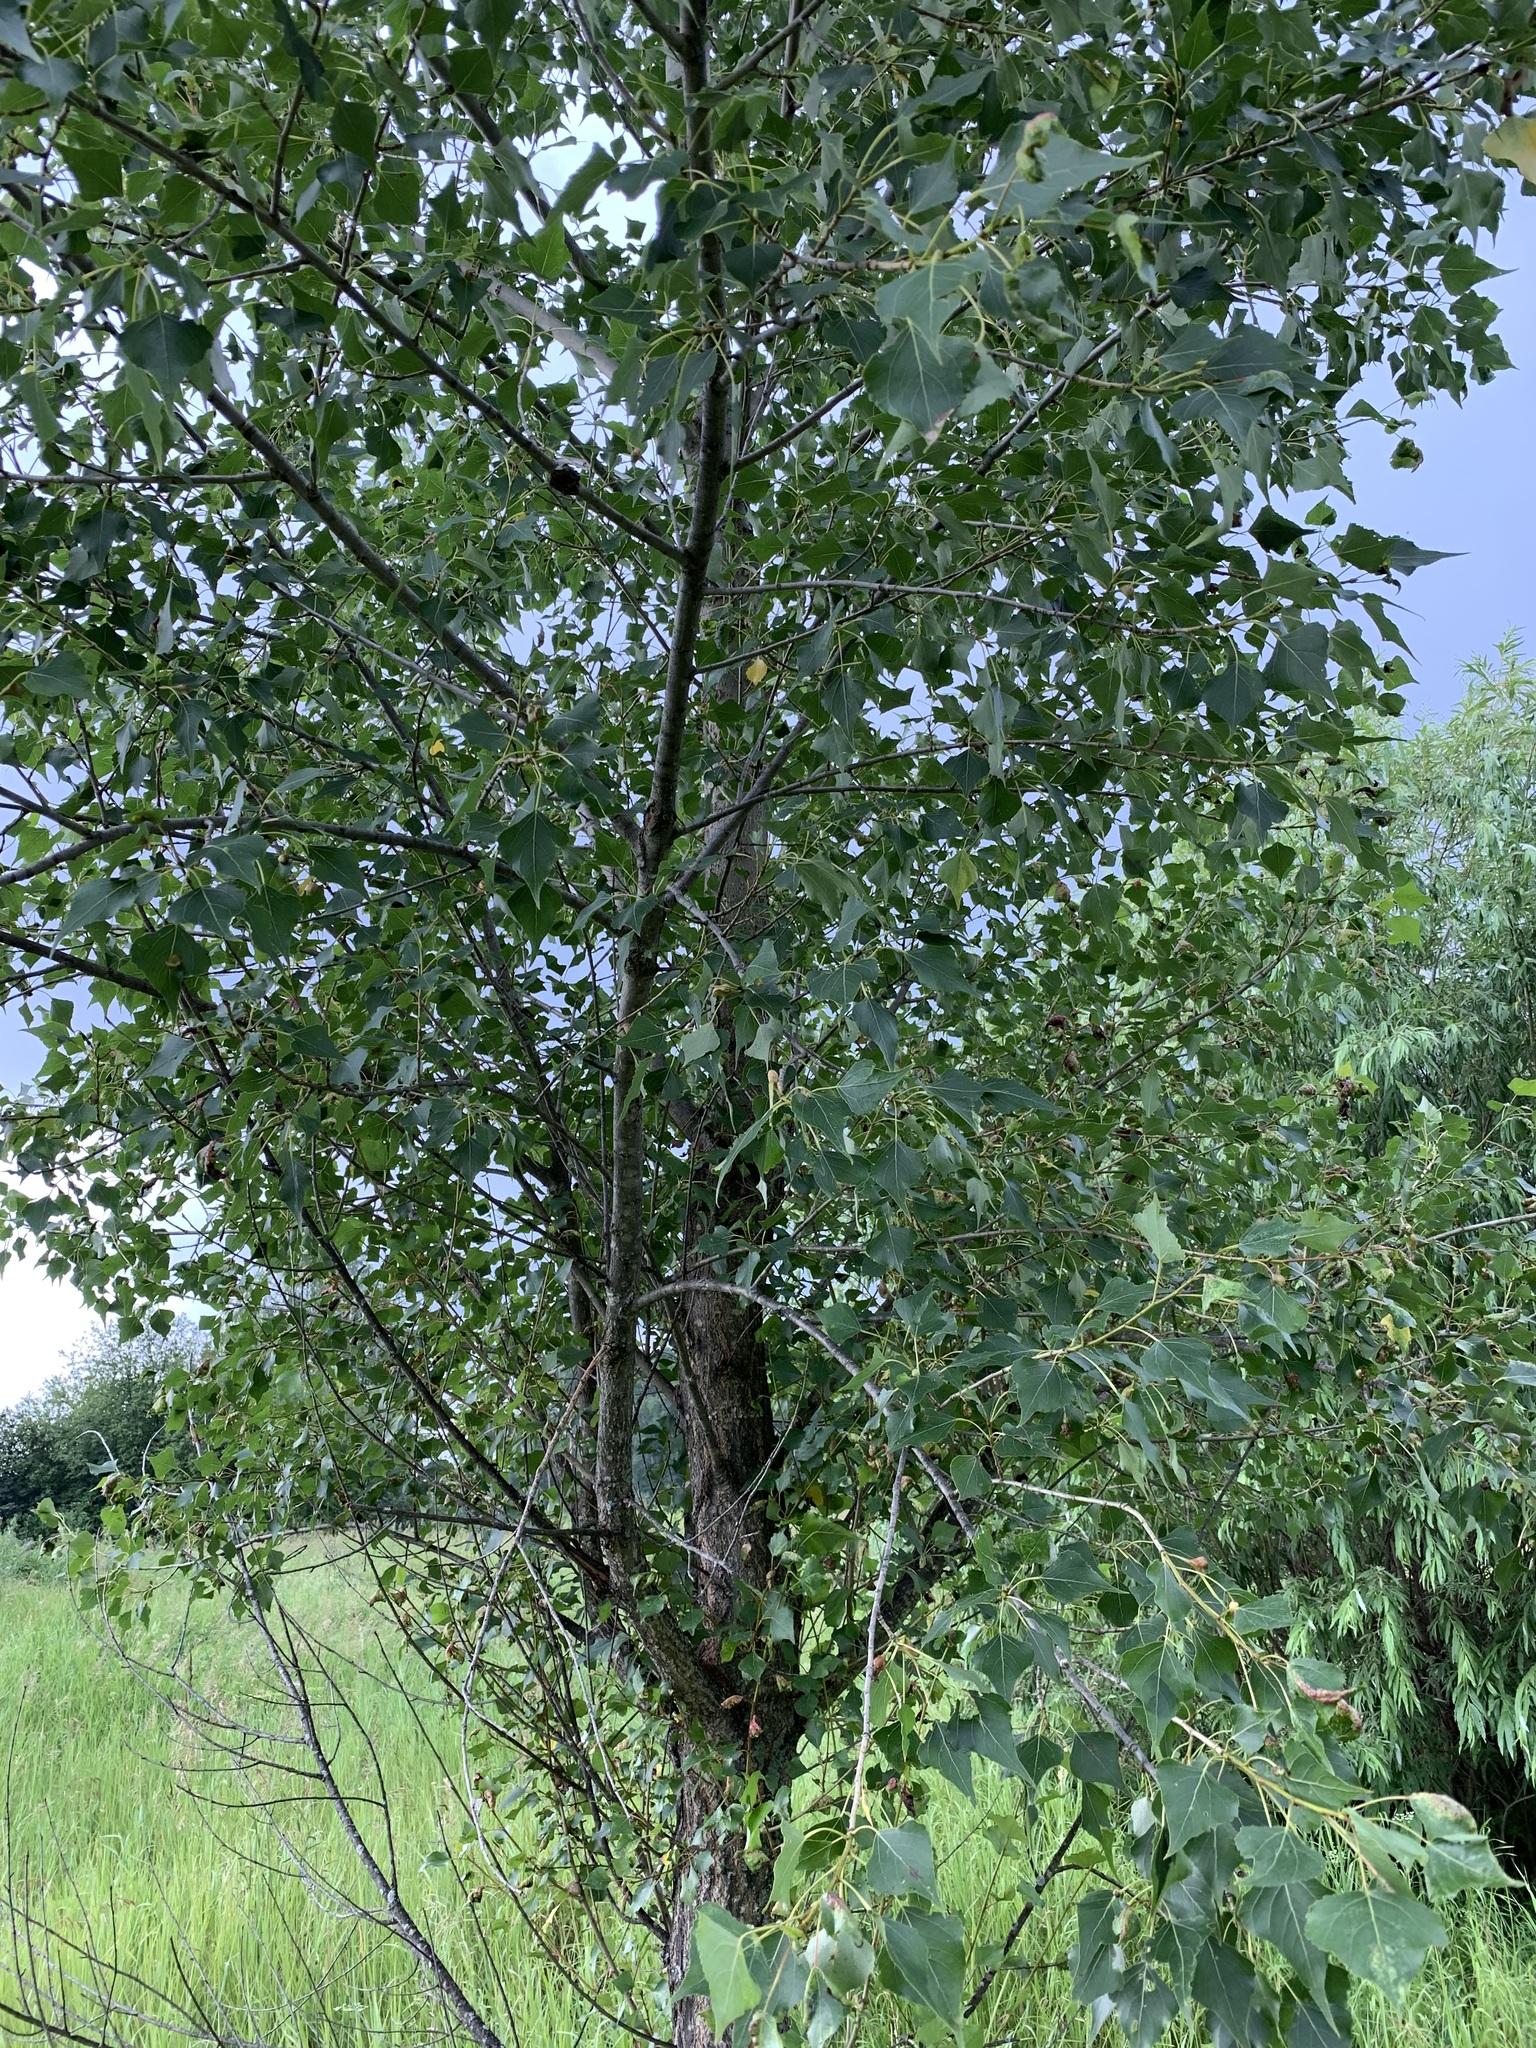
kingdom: Plantae
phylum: Tracheophyta
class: Magnoliopsida
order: Malpighiales
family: Salicaceae
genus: Populus
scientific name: Populus nigra
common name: Black poplar
